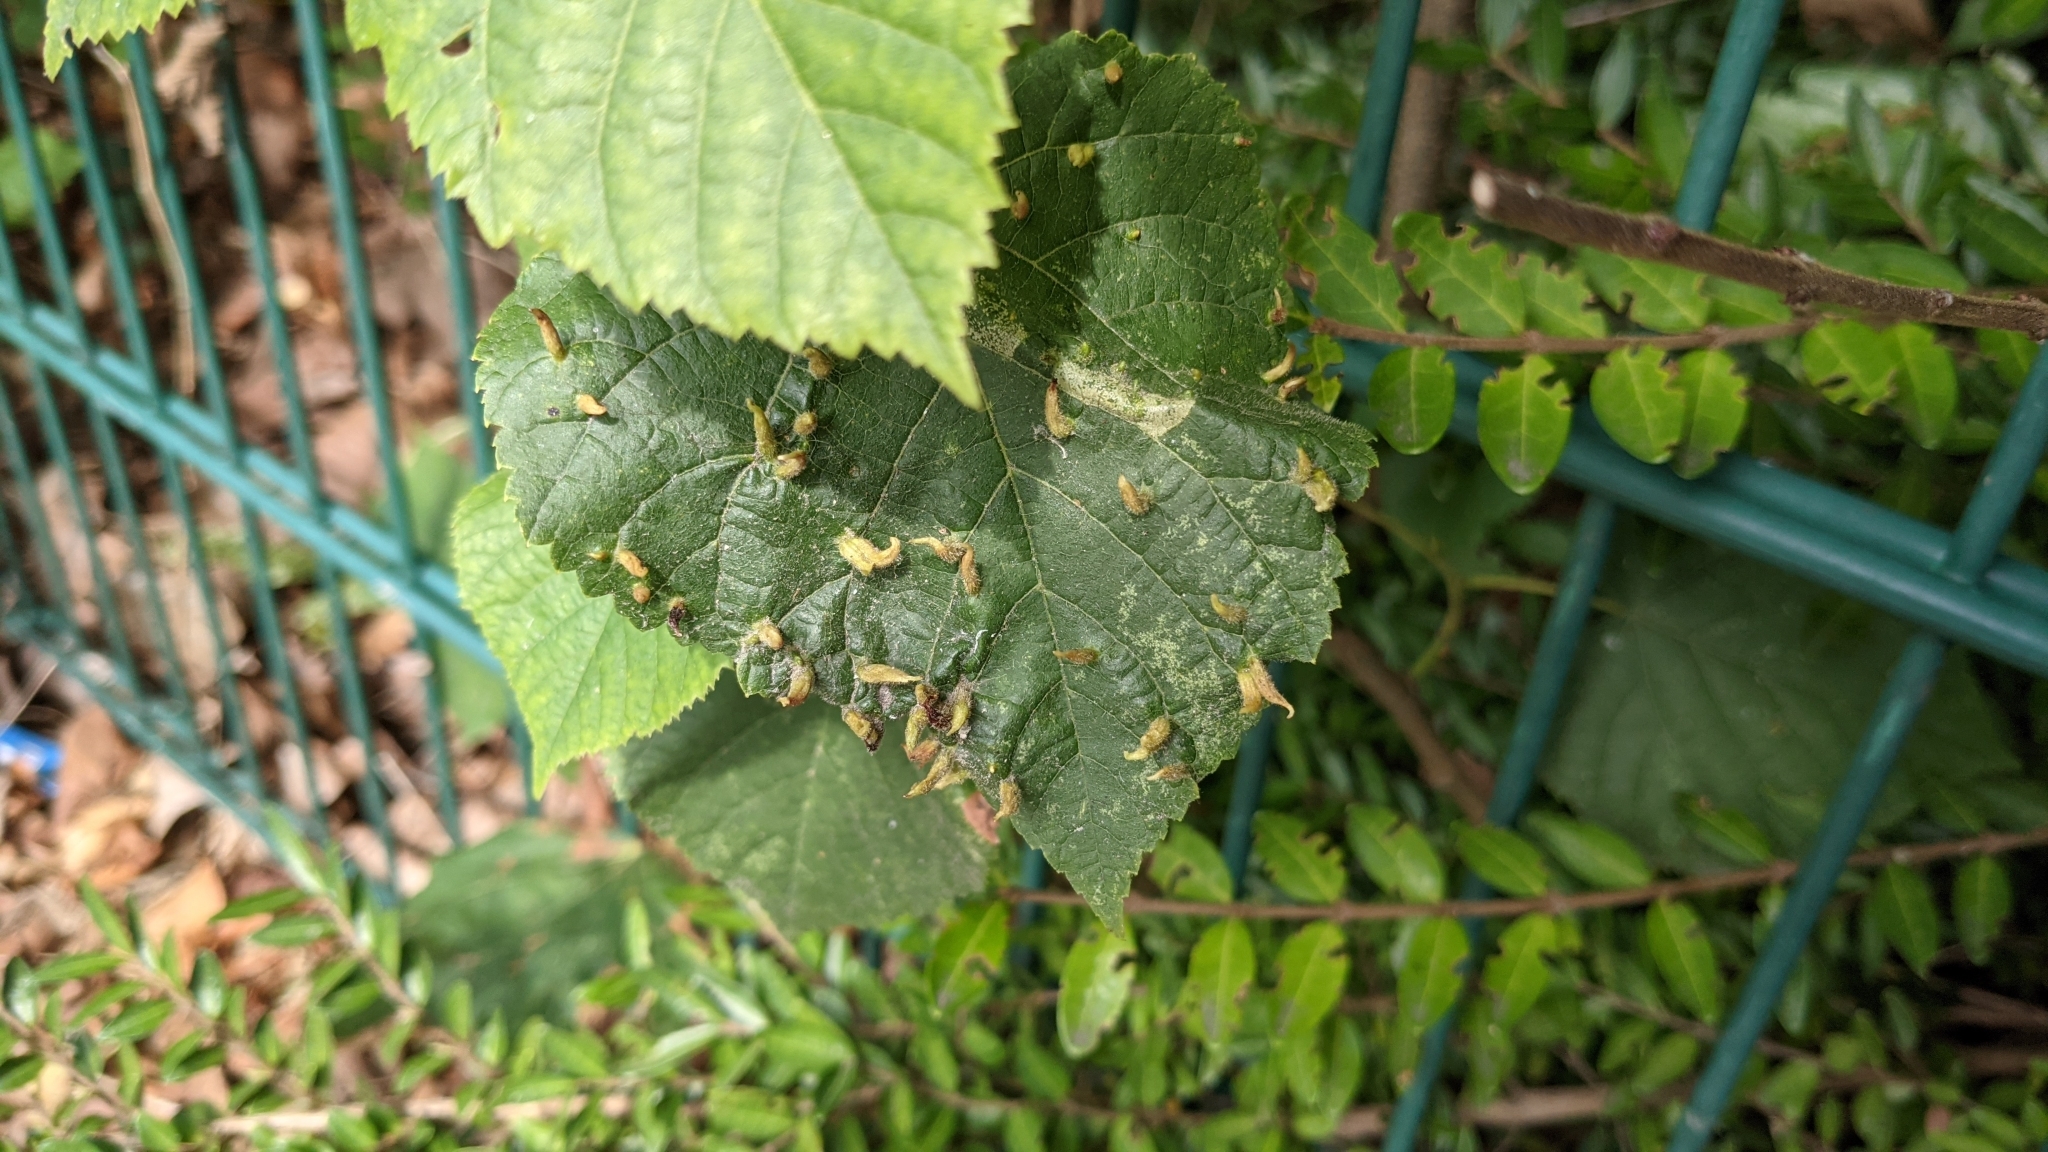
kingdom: Animalia
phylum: Arthropoda
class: Arachnida
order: Trombidiformes
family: Eriophyidae
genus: Eriophyes
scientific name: Eriophyes tiliae
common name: Red nail gall mite
